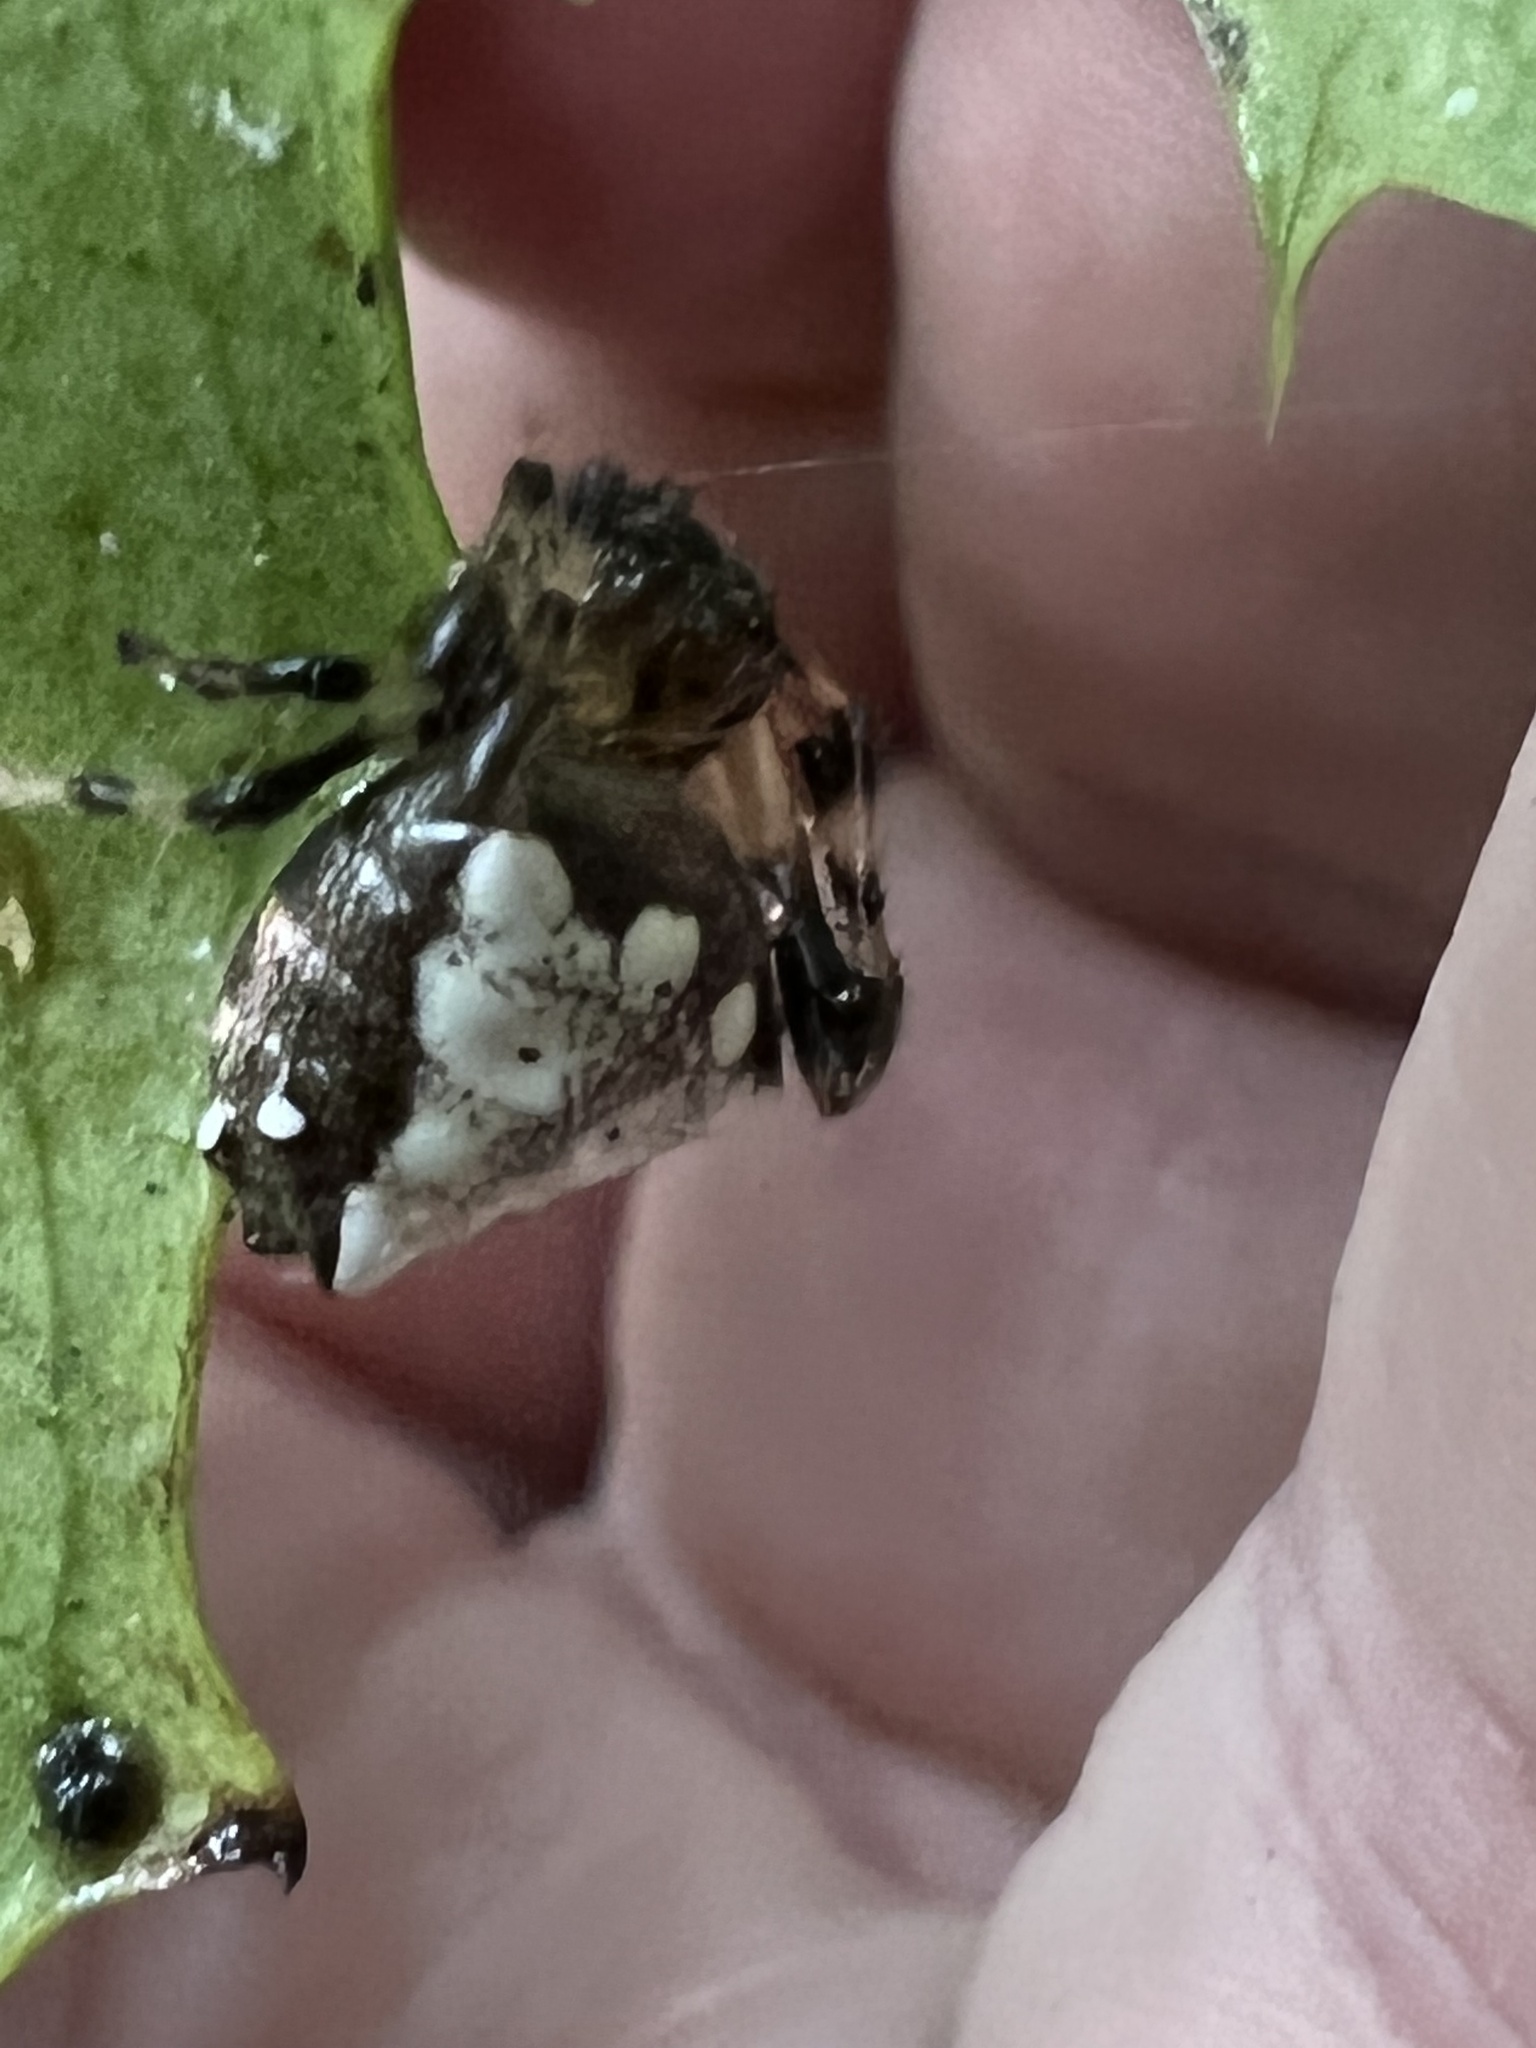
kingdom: Animalia
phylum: Arthropoda
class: Arachnida
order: Araneae
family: Araneidae
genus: Verrucosa
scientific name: Verrucosa arenata
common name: Orb weavers
